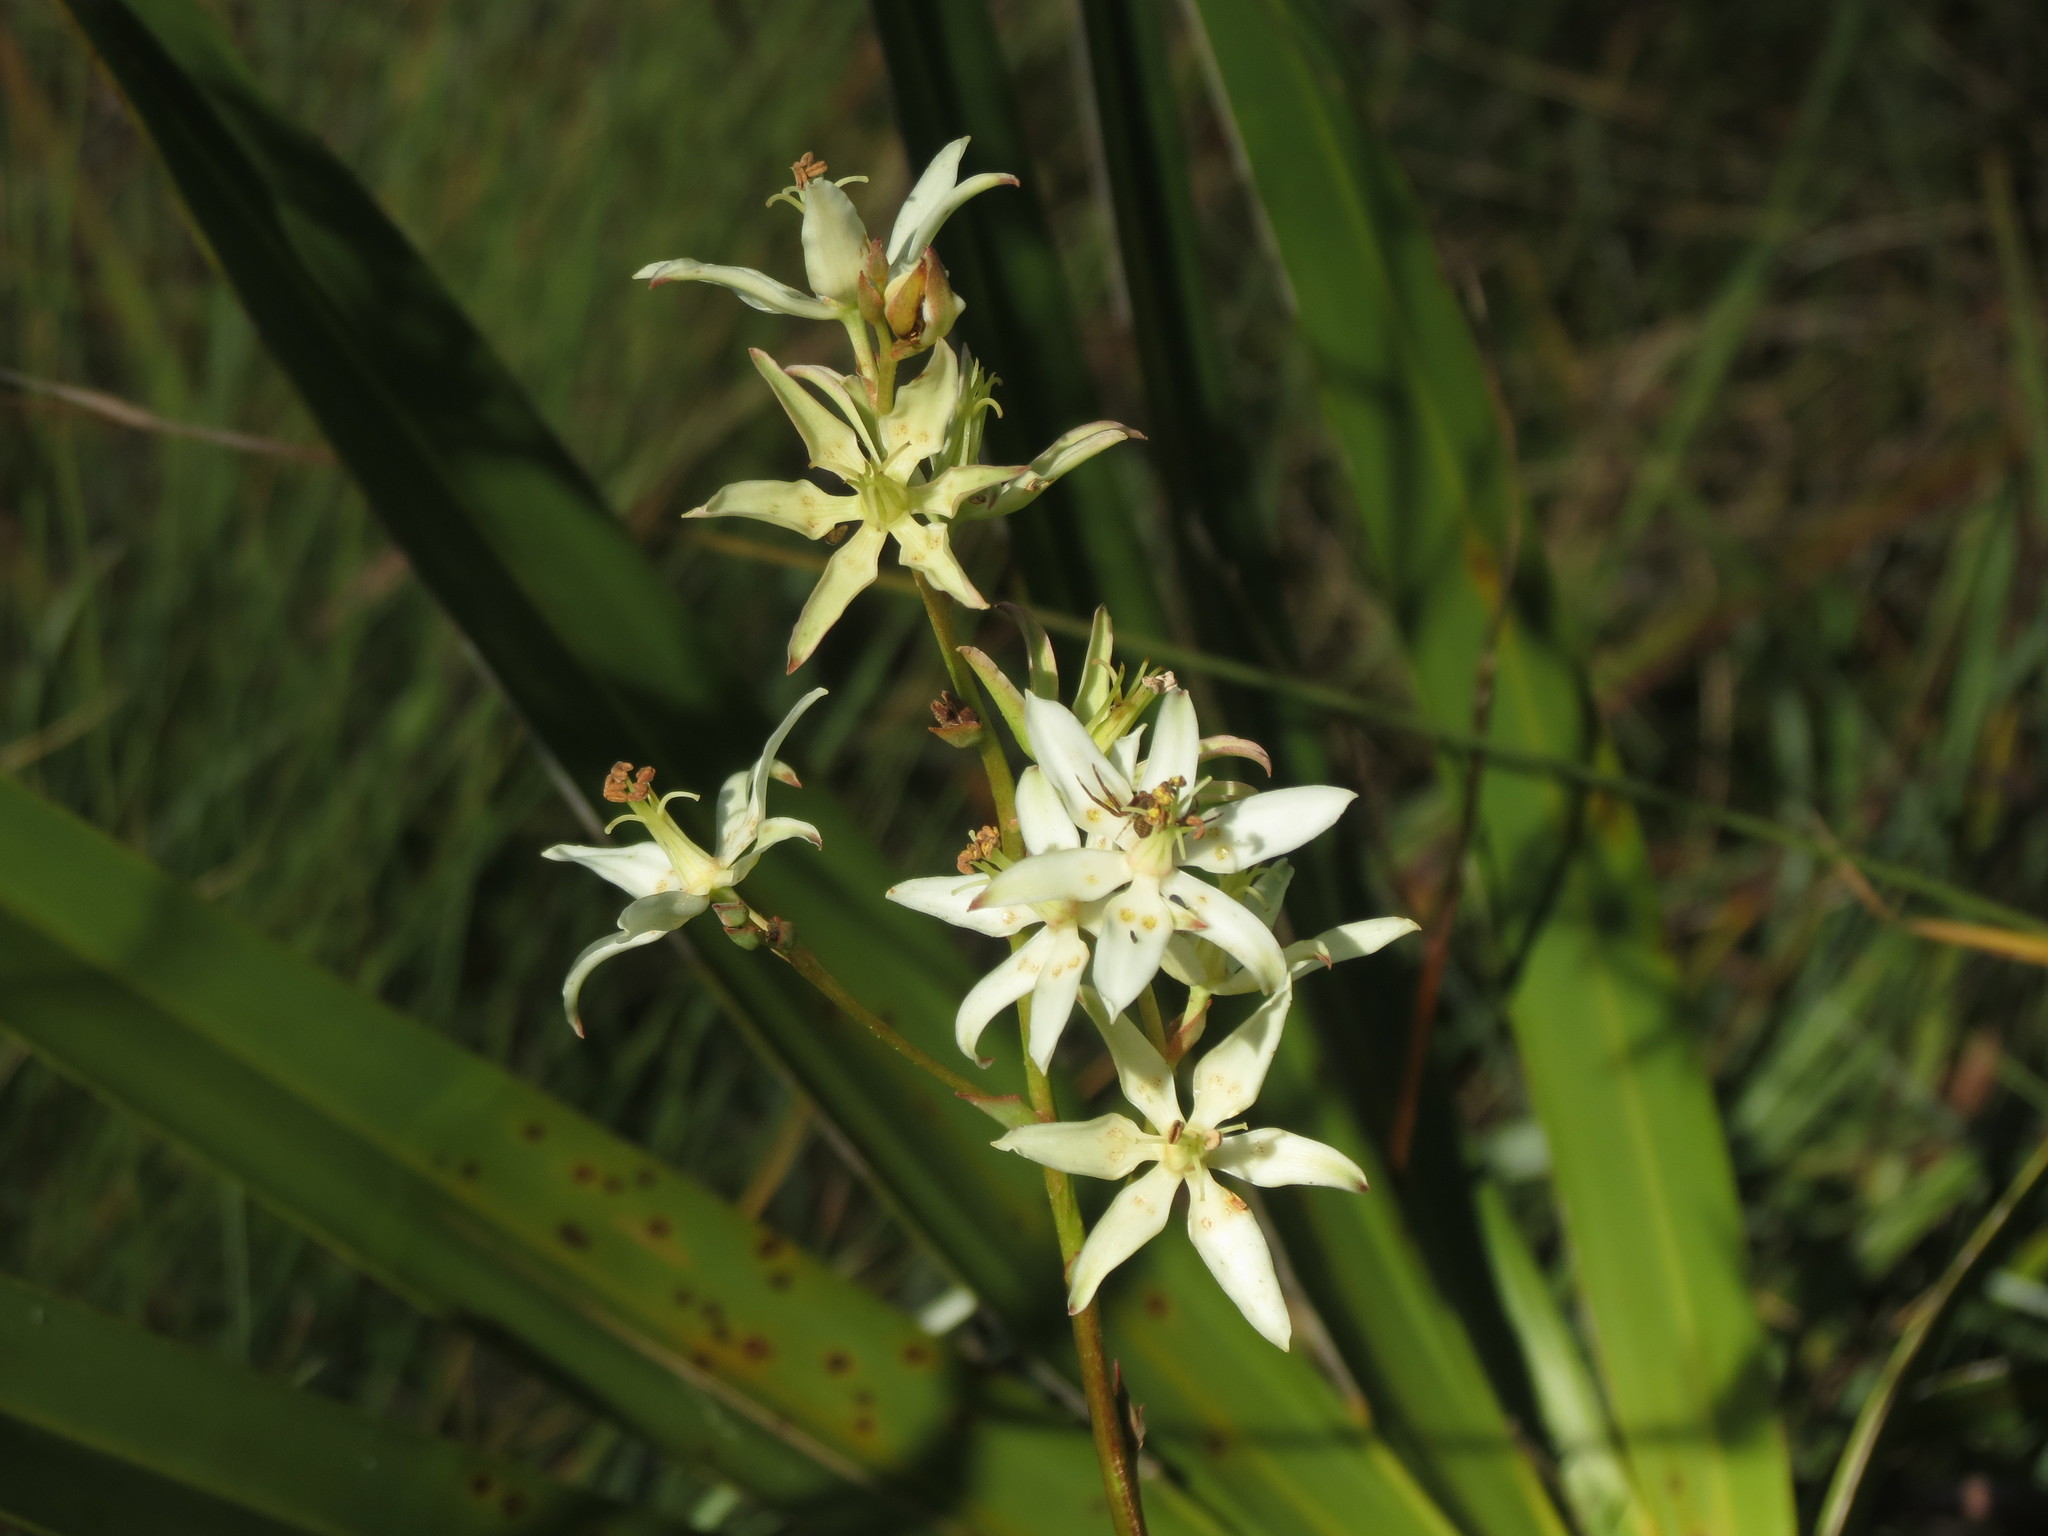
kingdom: Plantae
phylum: Tracheophyta
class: Liliopsida
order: Liliales
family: Melanthiaceae
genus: Zigadenus
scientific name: Zigadenus glaberrimus
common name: Sandbog death camas
